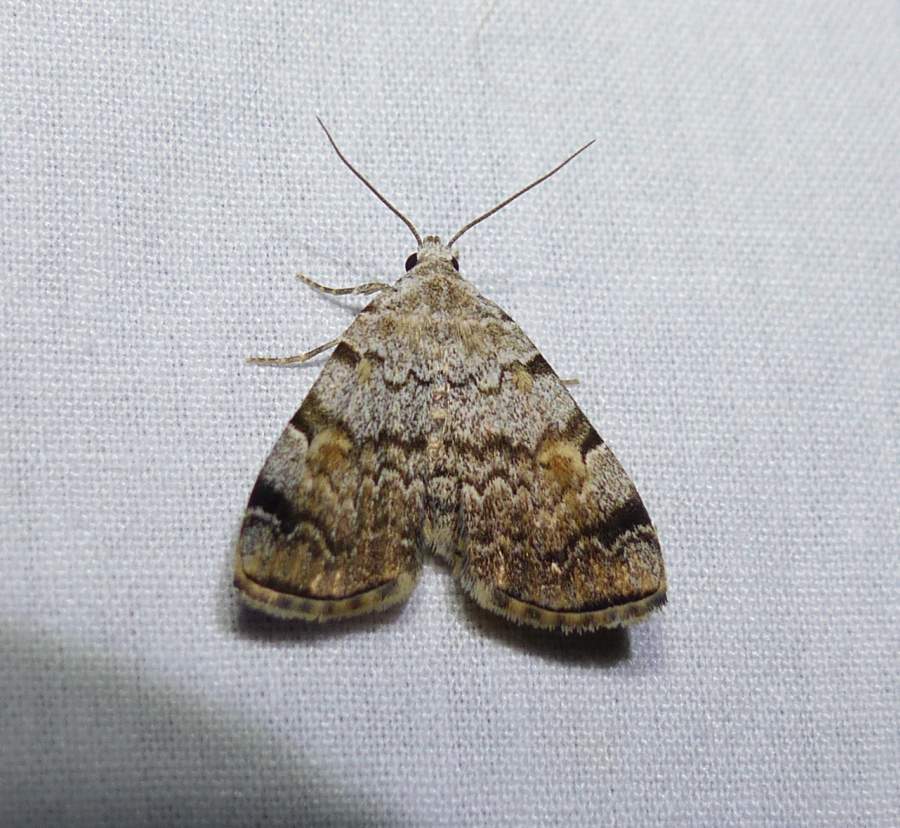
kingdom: Animalia
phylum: Arthropoda
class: Insecta
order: Lepidoptera
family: Erebidae
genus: Idia
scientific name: Idia americalis
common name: American idia moth
